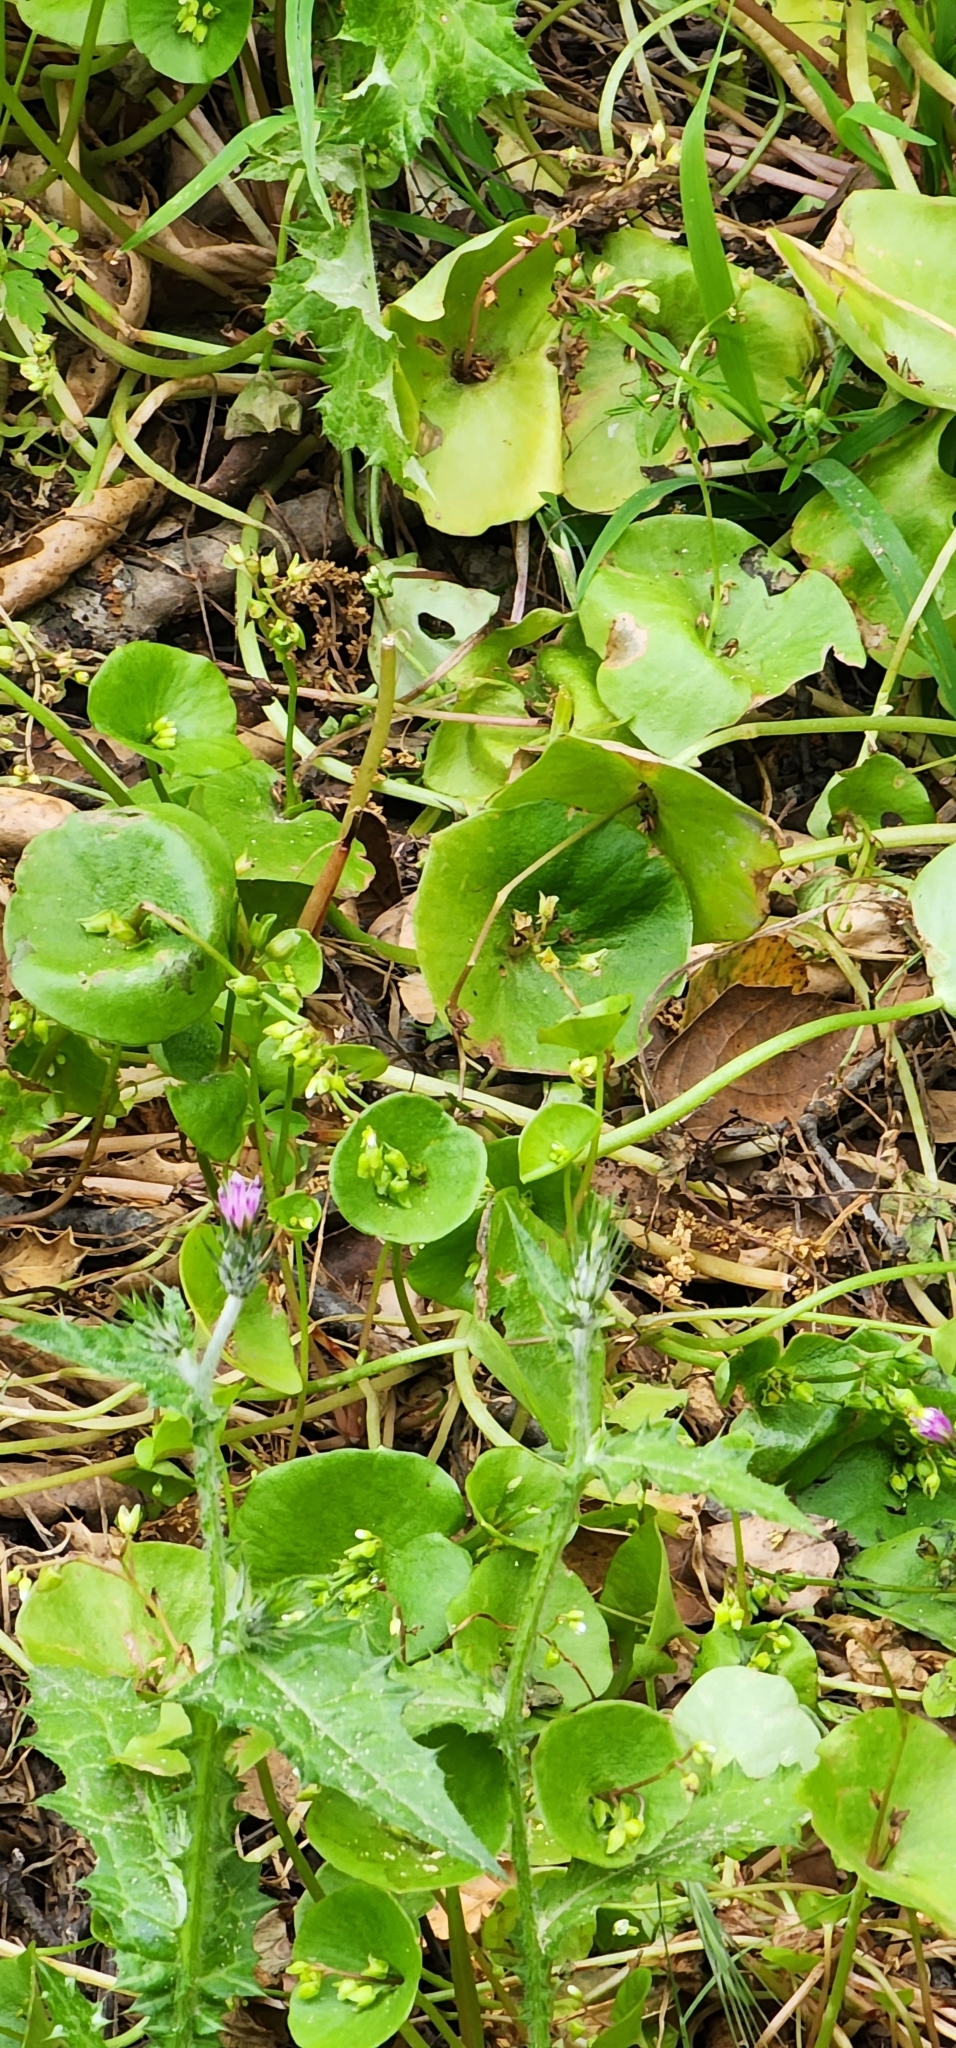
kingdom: Plantae
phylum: Tracheophyta
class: Magnoliopsida
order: Caryophyllales
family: Montiaceae
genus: Claytonia
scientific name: Claytonia perfoliata
